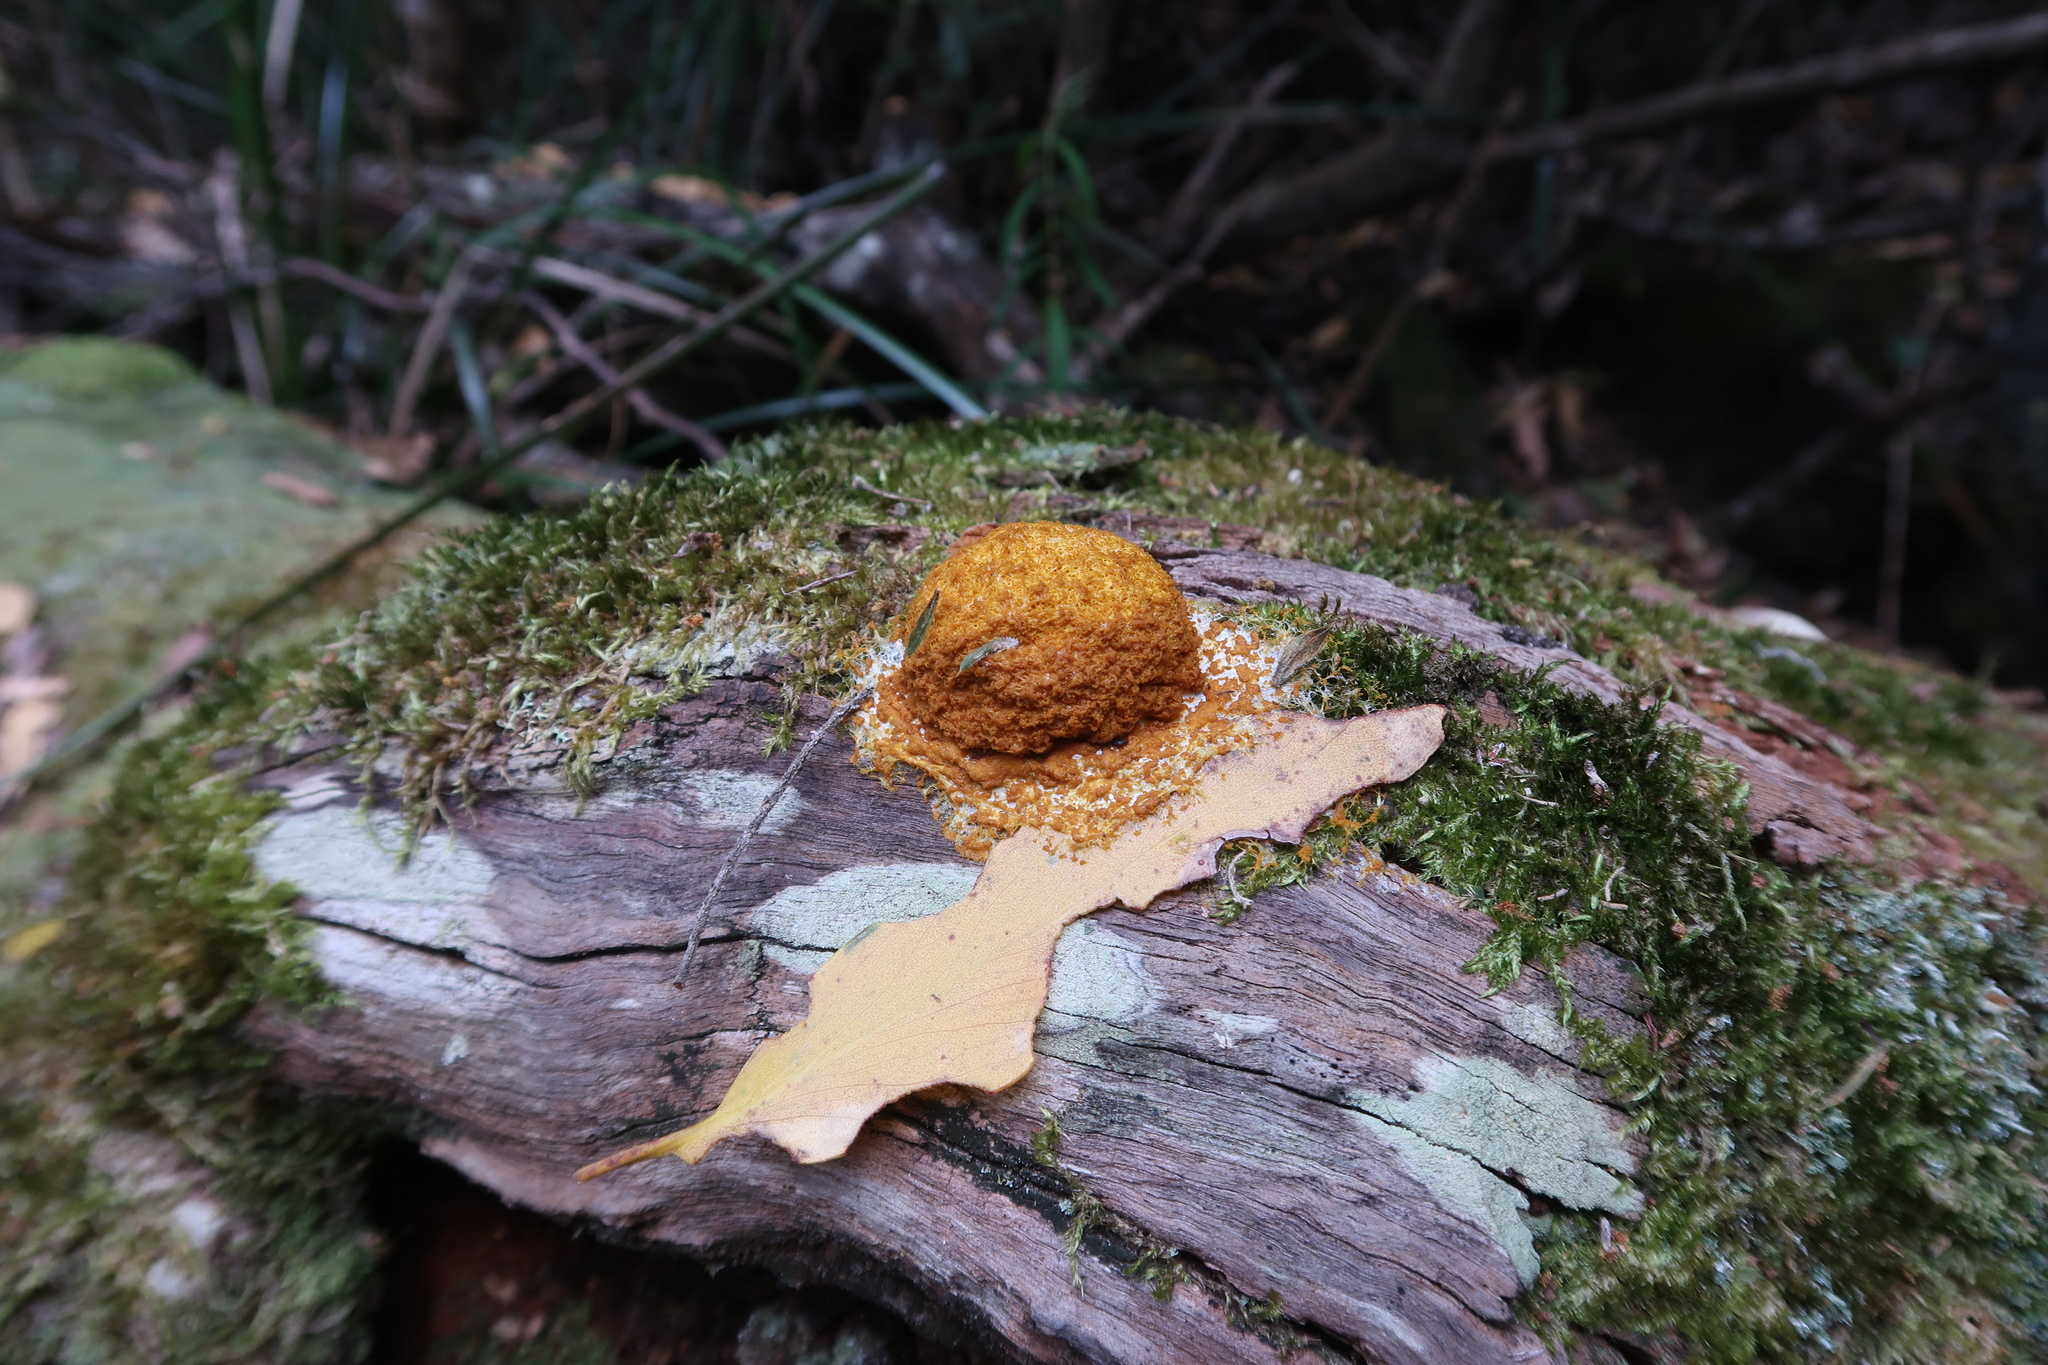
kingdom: Protozoa
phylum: Mycetozoa
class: Myxomycetes
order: Physarales
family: Physaraceae
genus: Fuligo
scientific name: Fuligo septica
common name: Dog vomit slime mold
